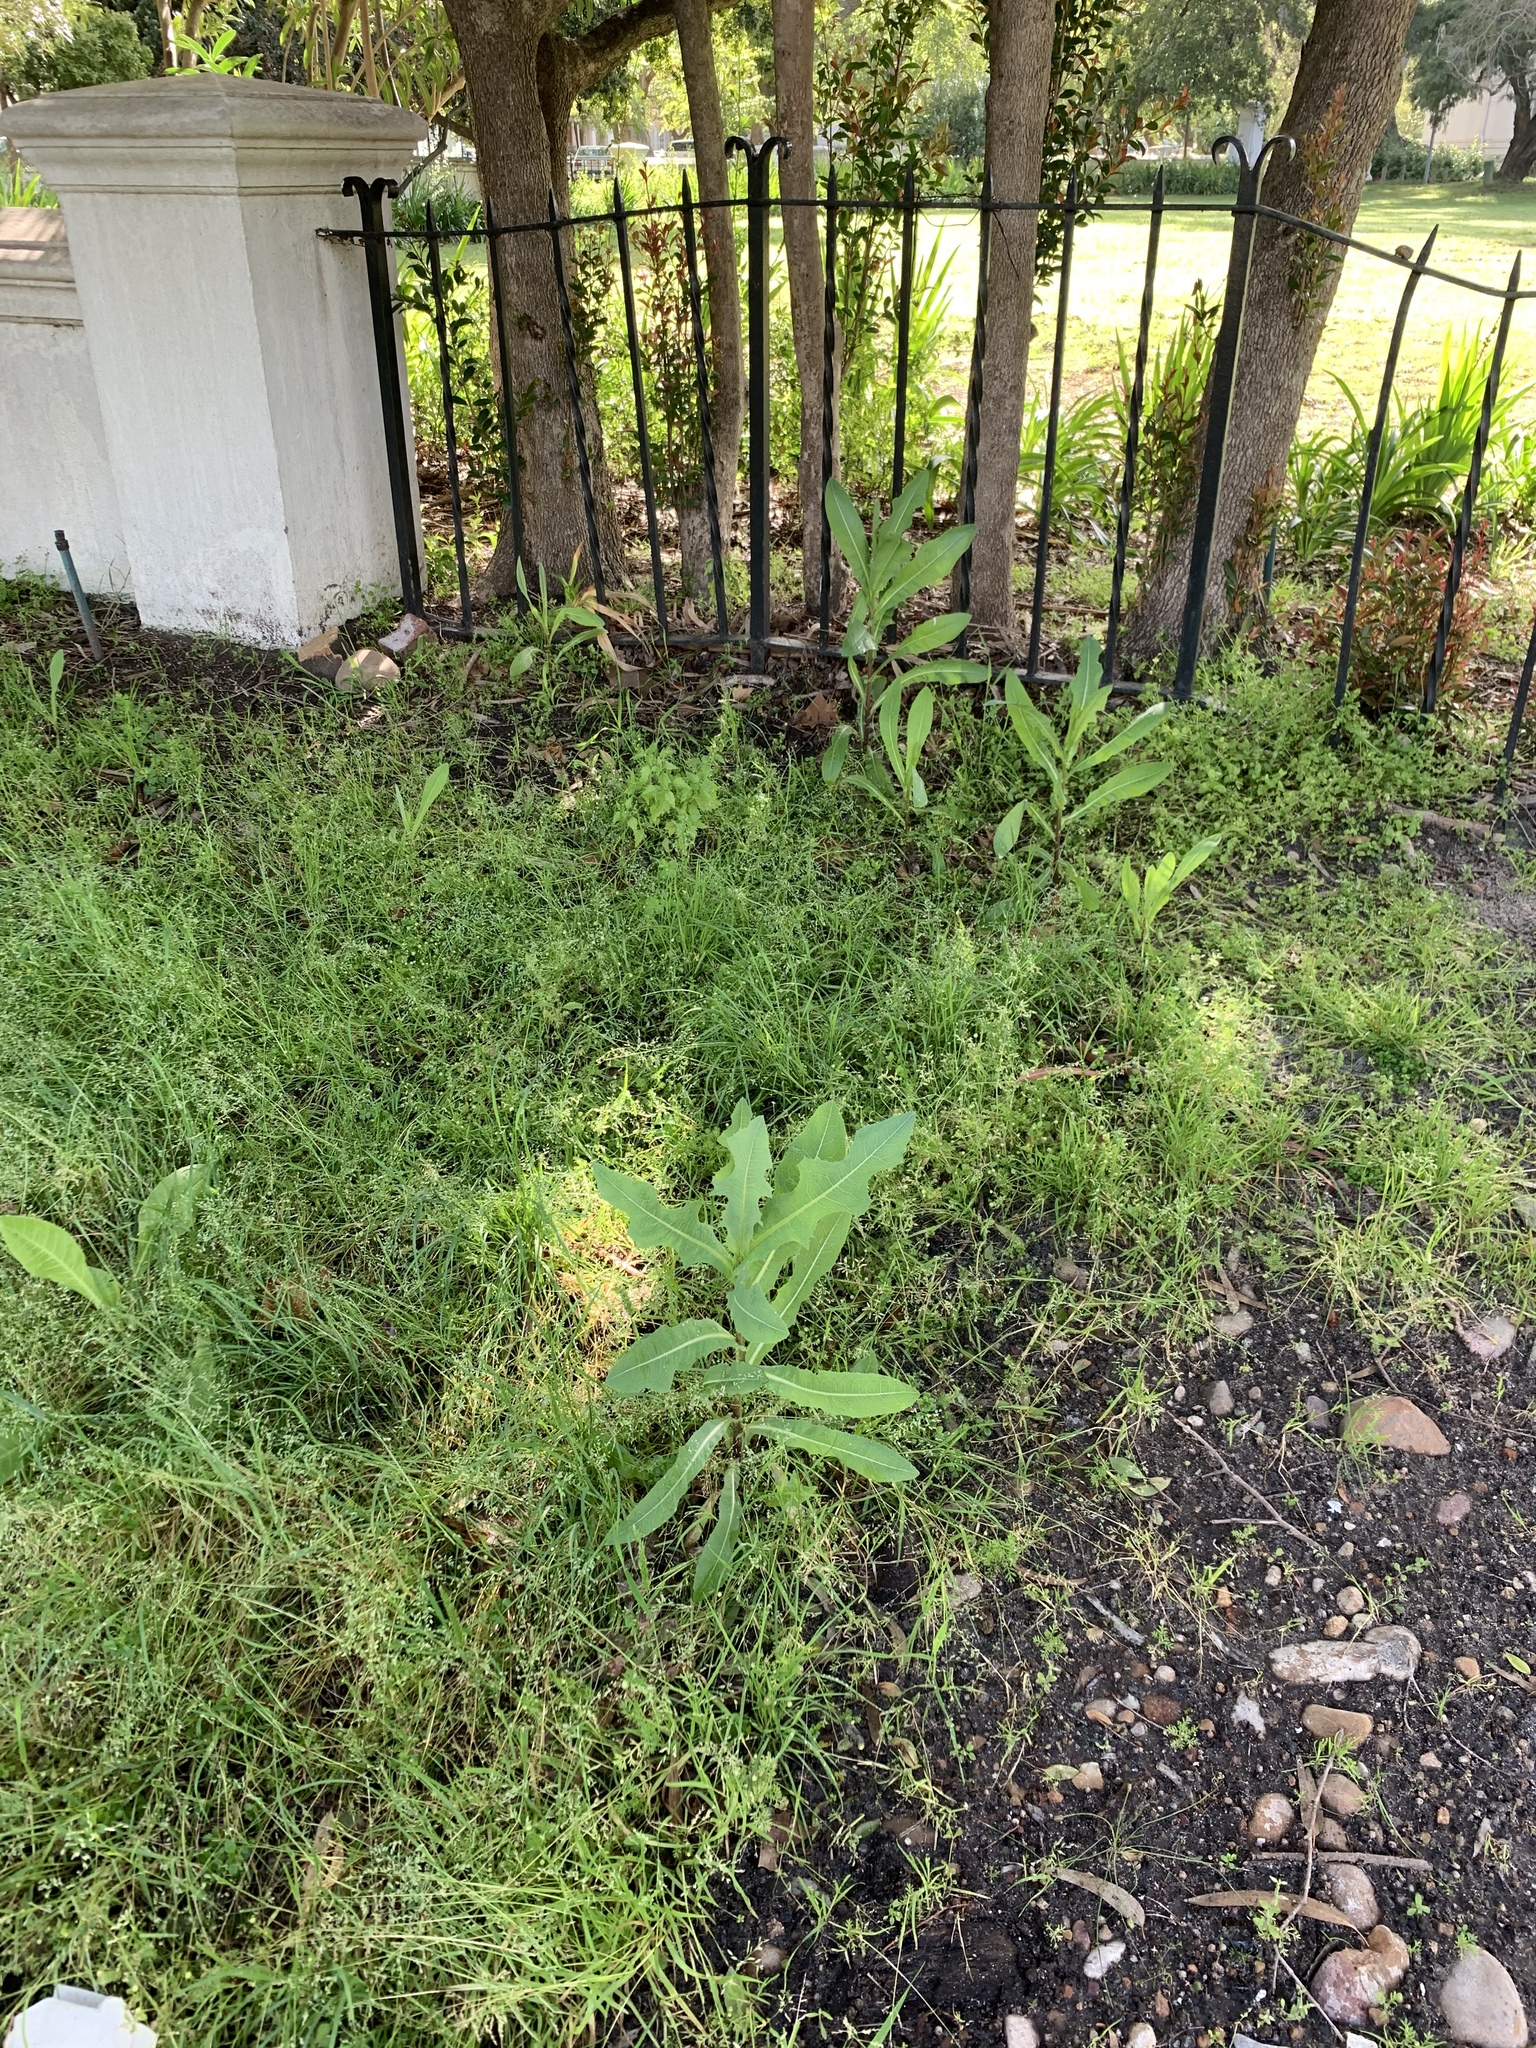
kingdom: Plantae
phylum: Tracheophyta
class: Magnoliopsida
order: Asterales
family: Asteraceae
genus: Lactuca
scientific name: Lactuca serriola
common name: Prickly lettuce
